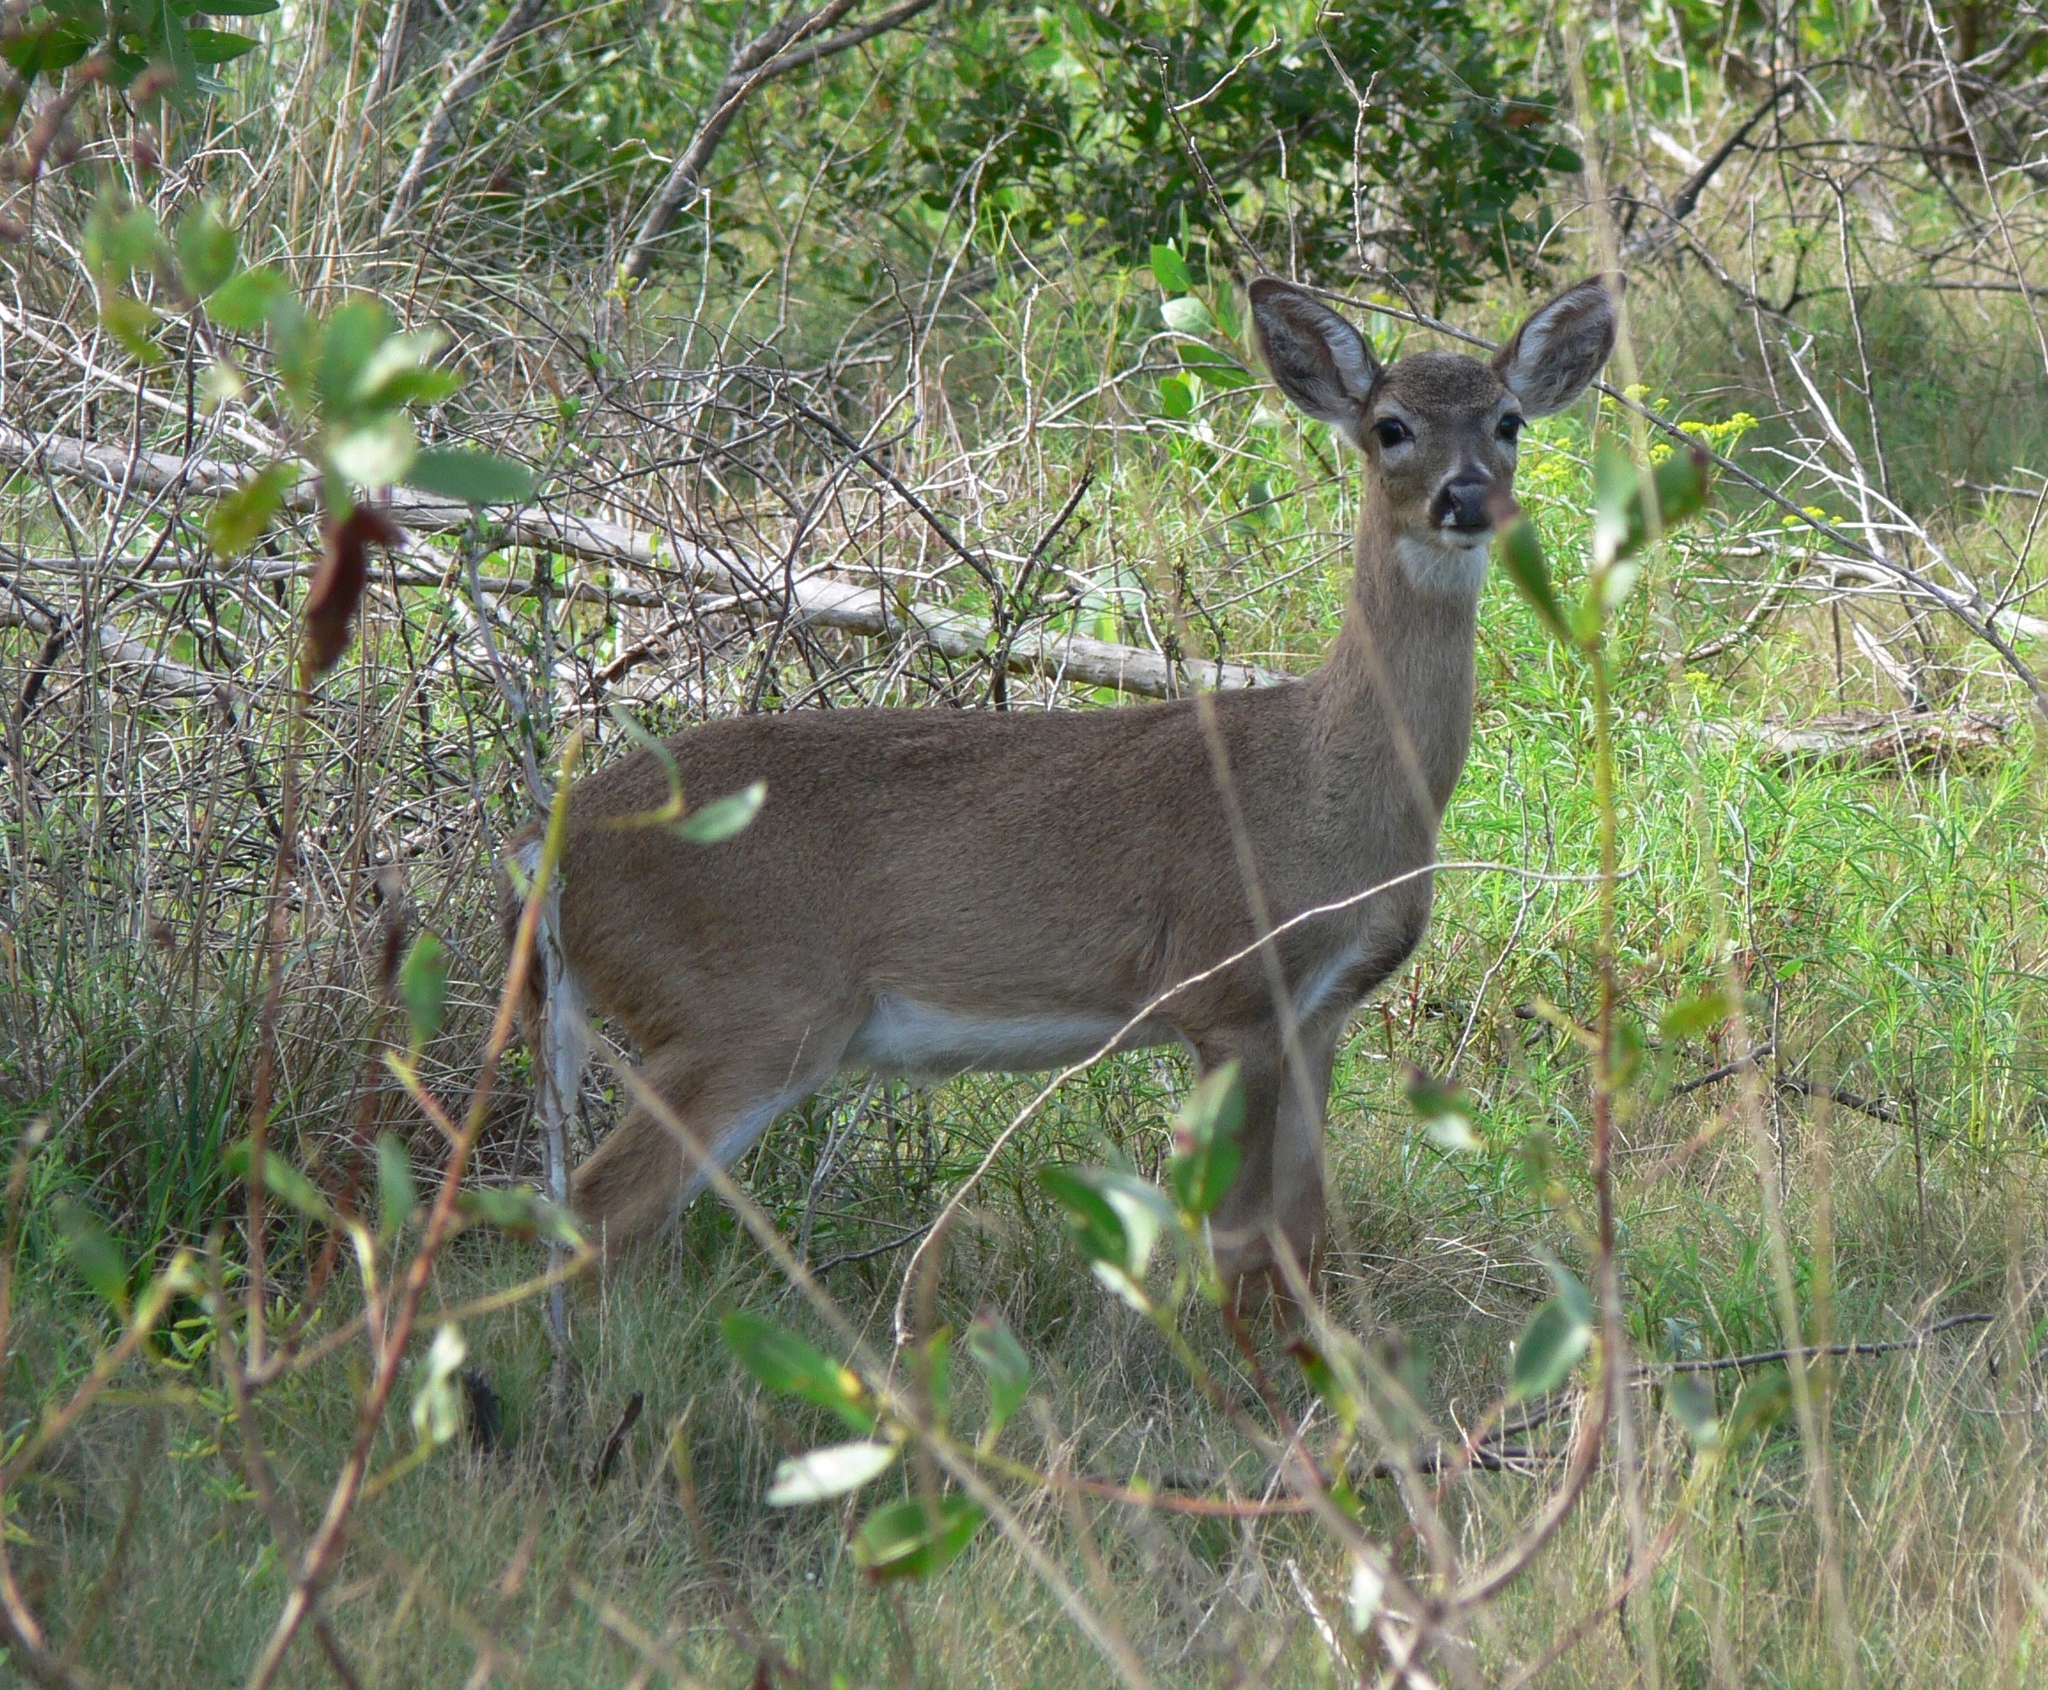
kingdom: Animalia
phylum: Chordata
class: Mammalia
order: Artiodactyla
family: Cervidae
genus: Odocoileus
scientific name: Odocoileus virginianus
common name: White-tailed deer
